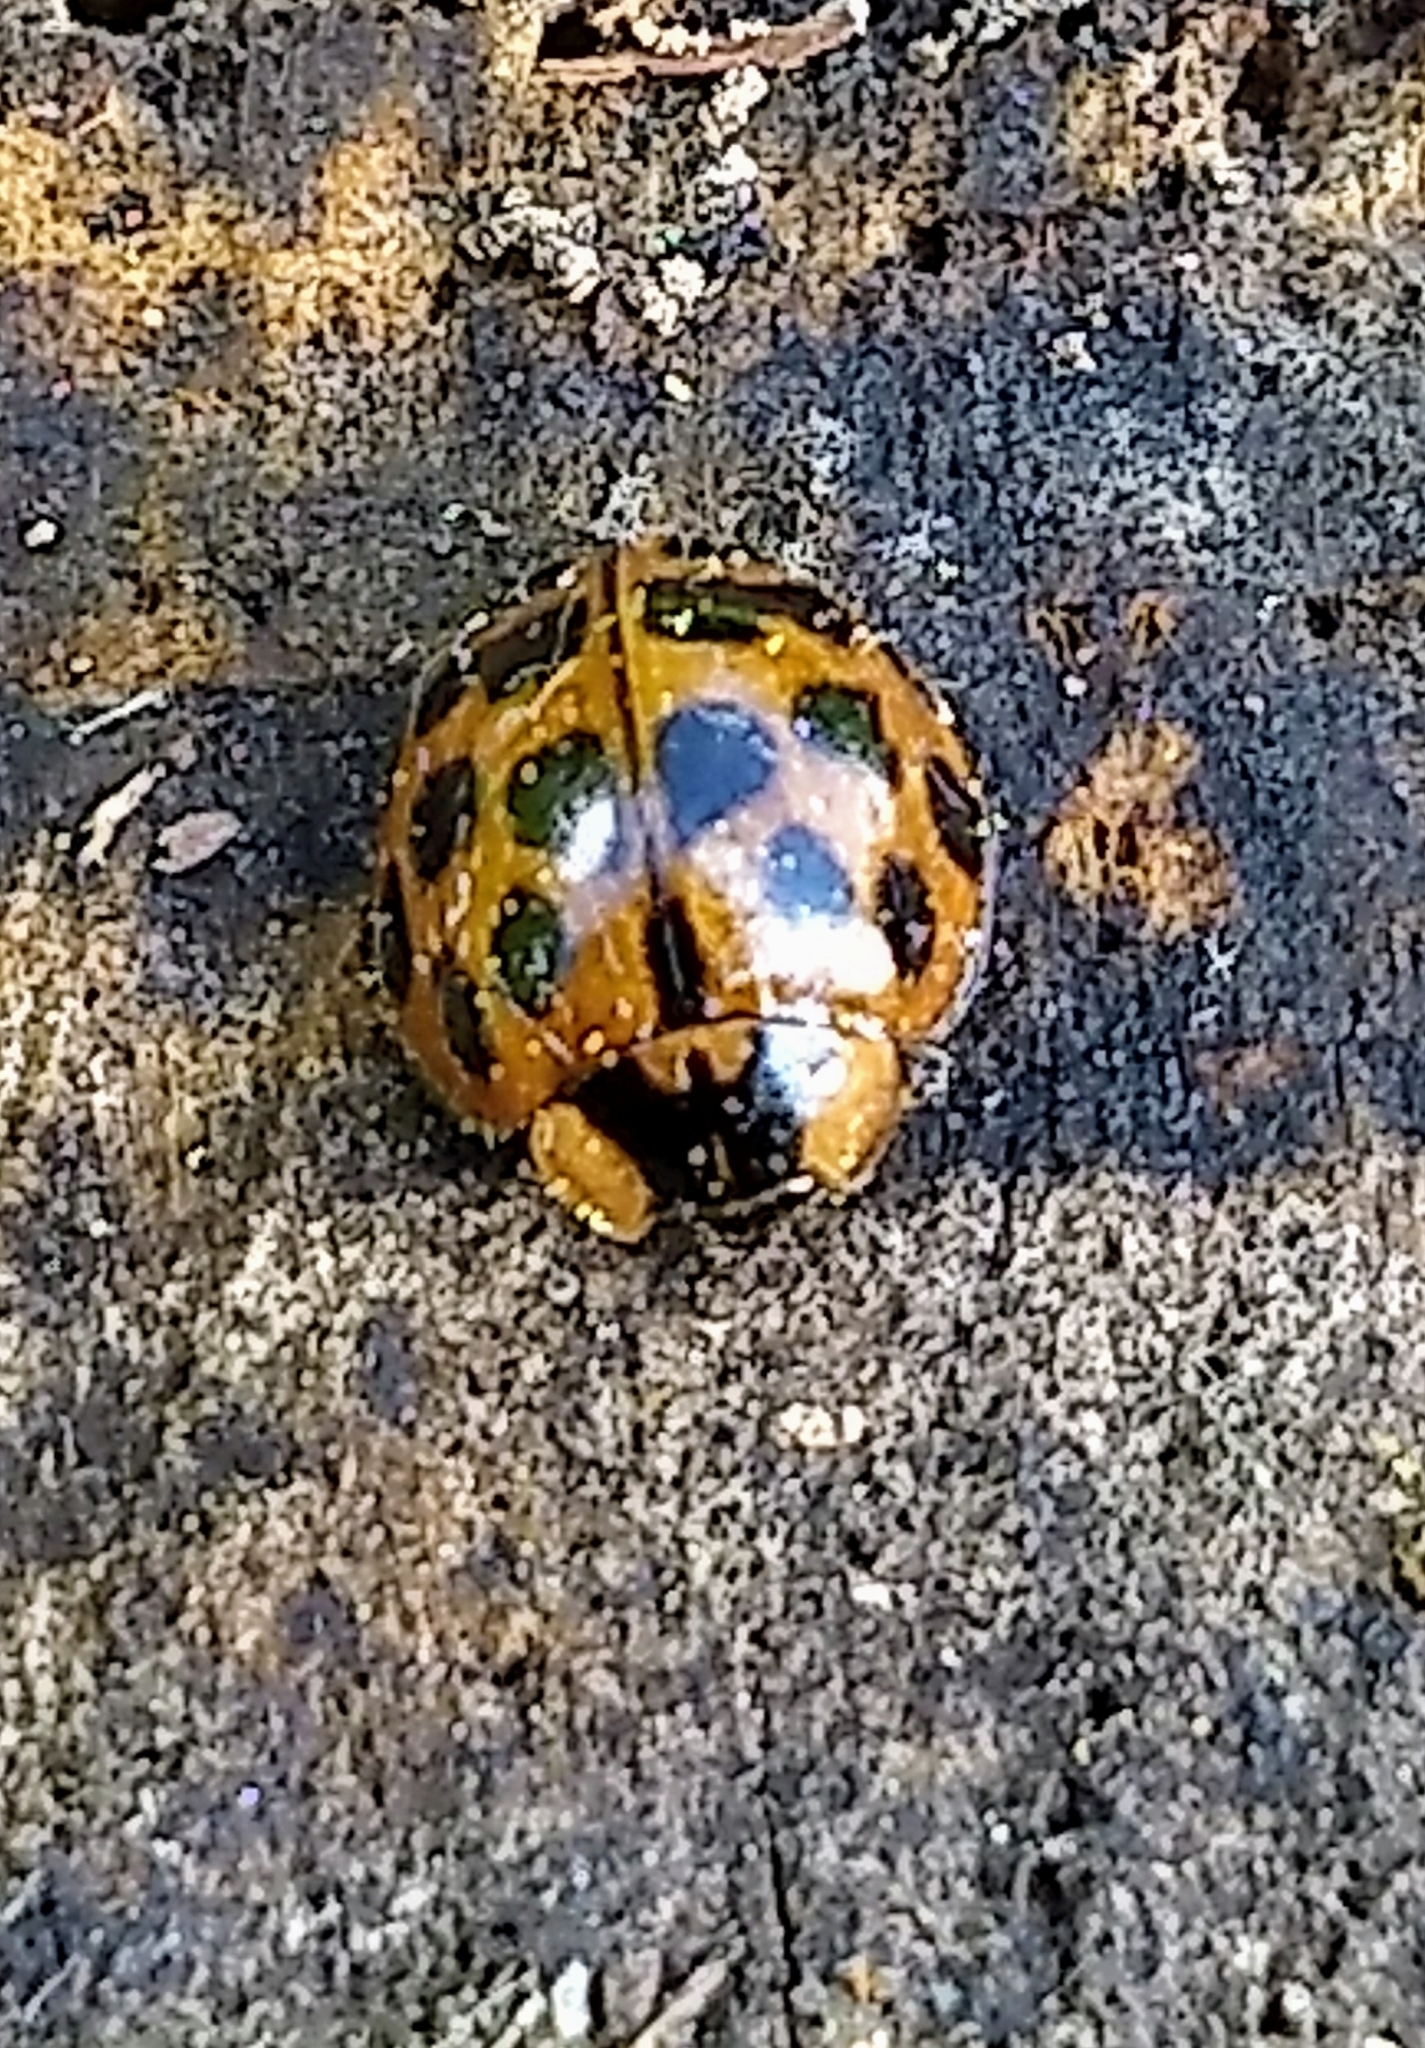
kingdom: Animalia
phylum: Arthropoda
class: Insecta
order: Coleoptera
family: Coccinellidae
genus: Harmonia
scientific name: Harmonia axyridis
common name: Harlequin ladybird
